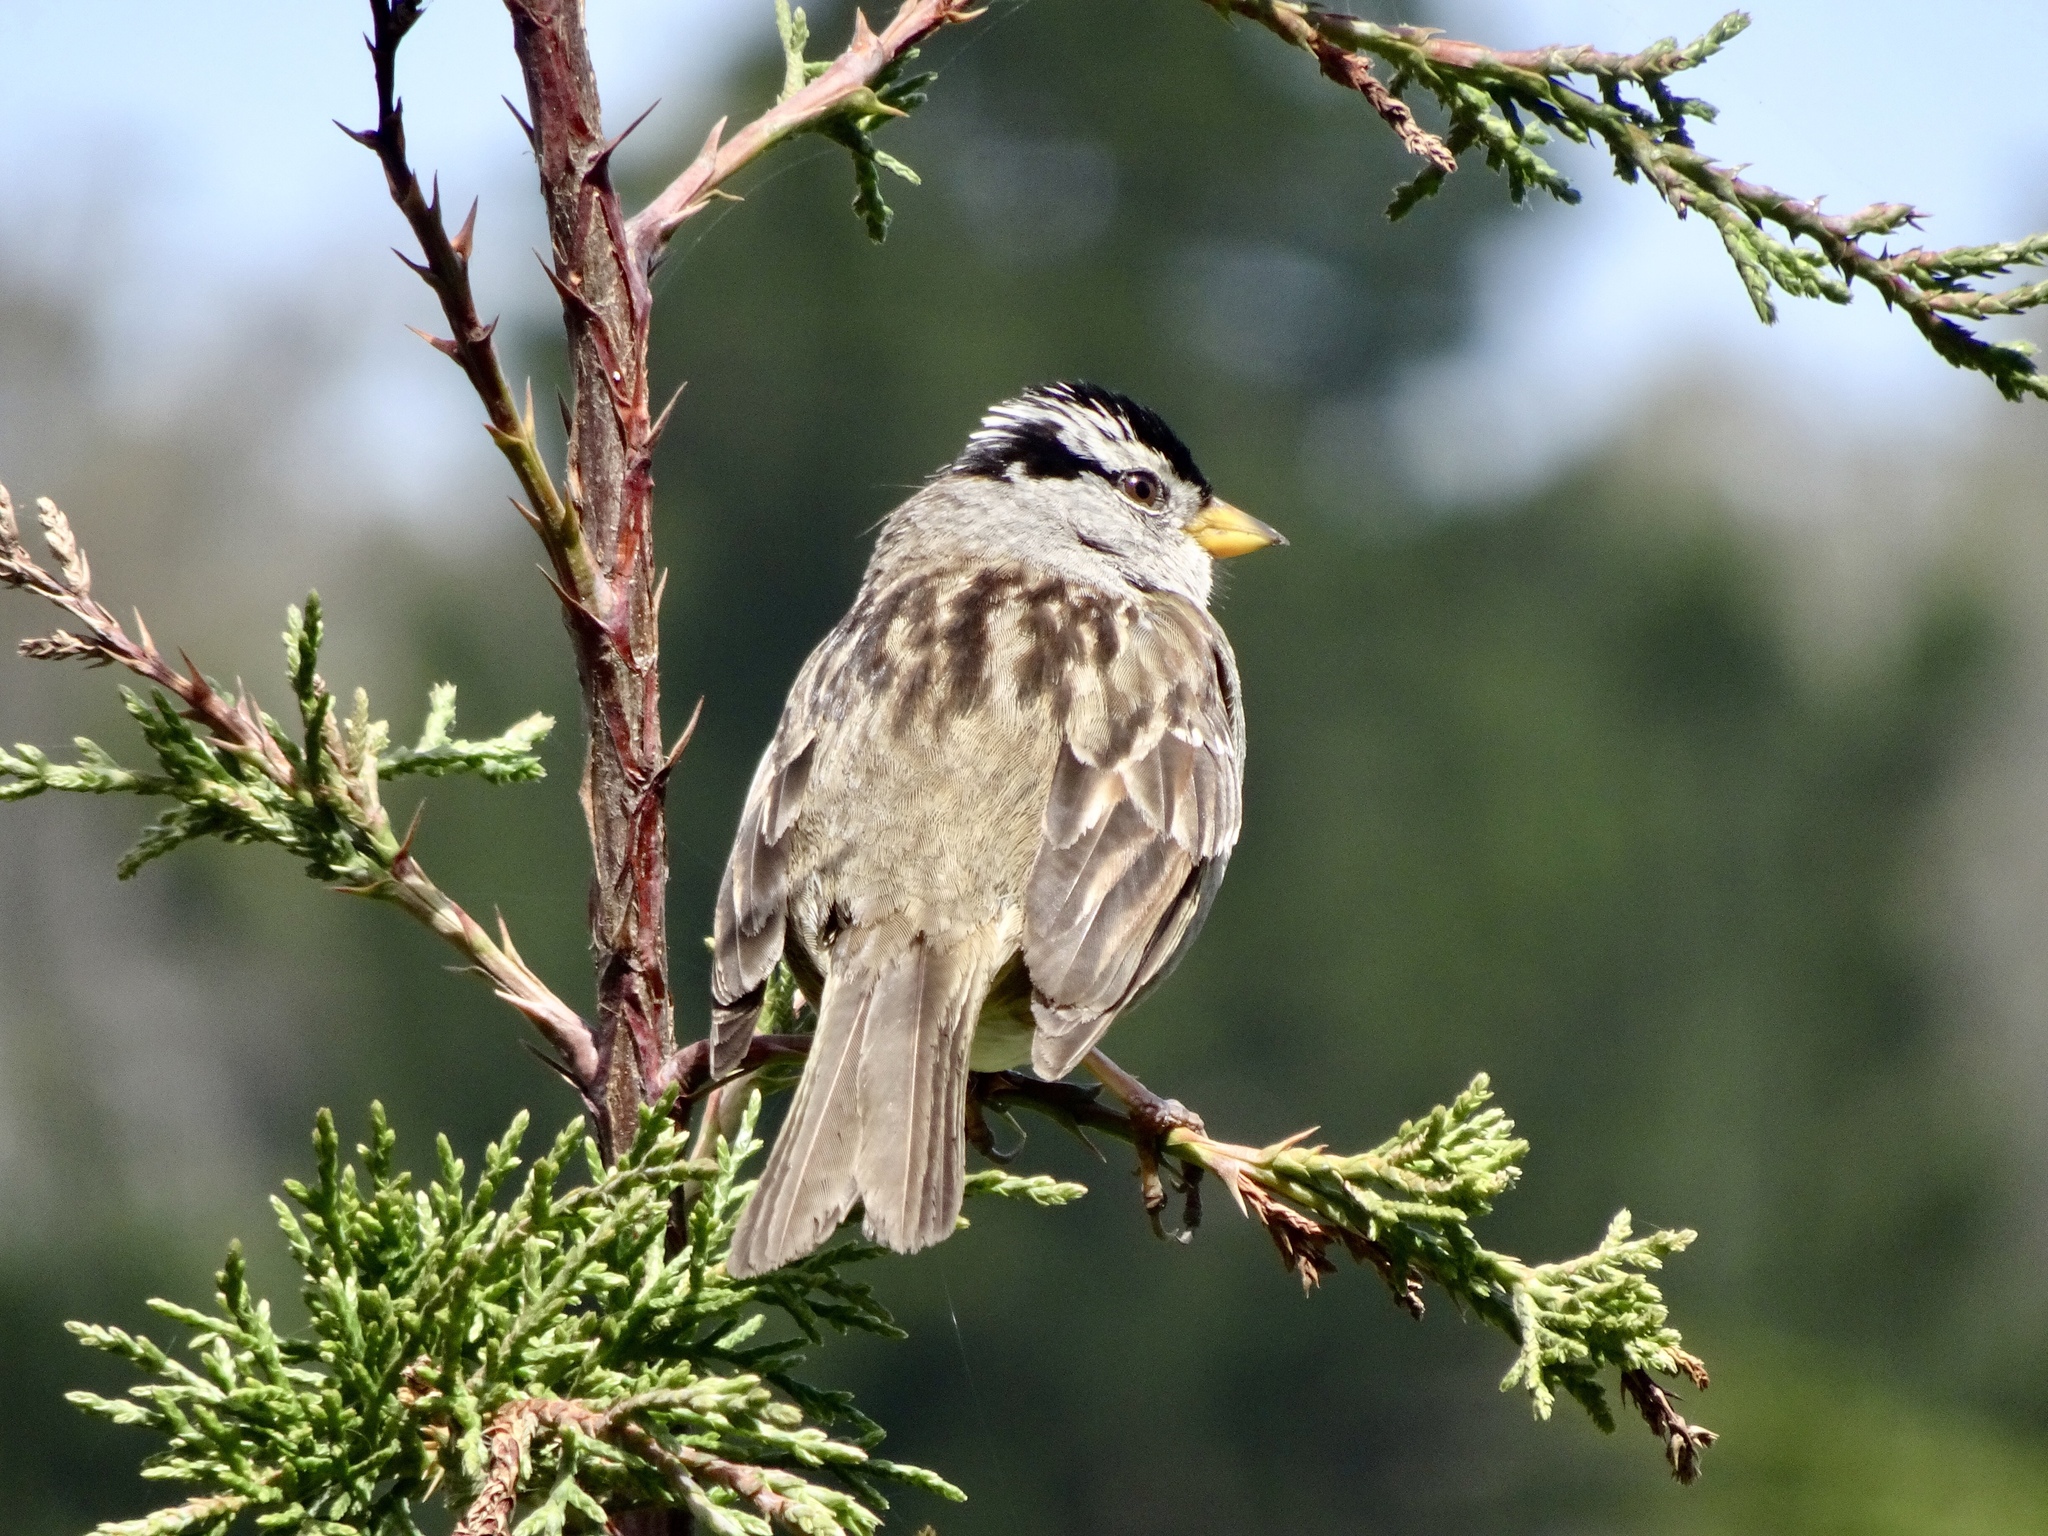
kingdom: Animalia
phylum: Chordata
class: Aves
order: Passeriformes
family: Passerellidae
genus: Zonotrichia
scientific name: Zonotrichia leucophrys
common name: White-crowned sparrow
